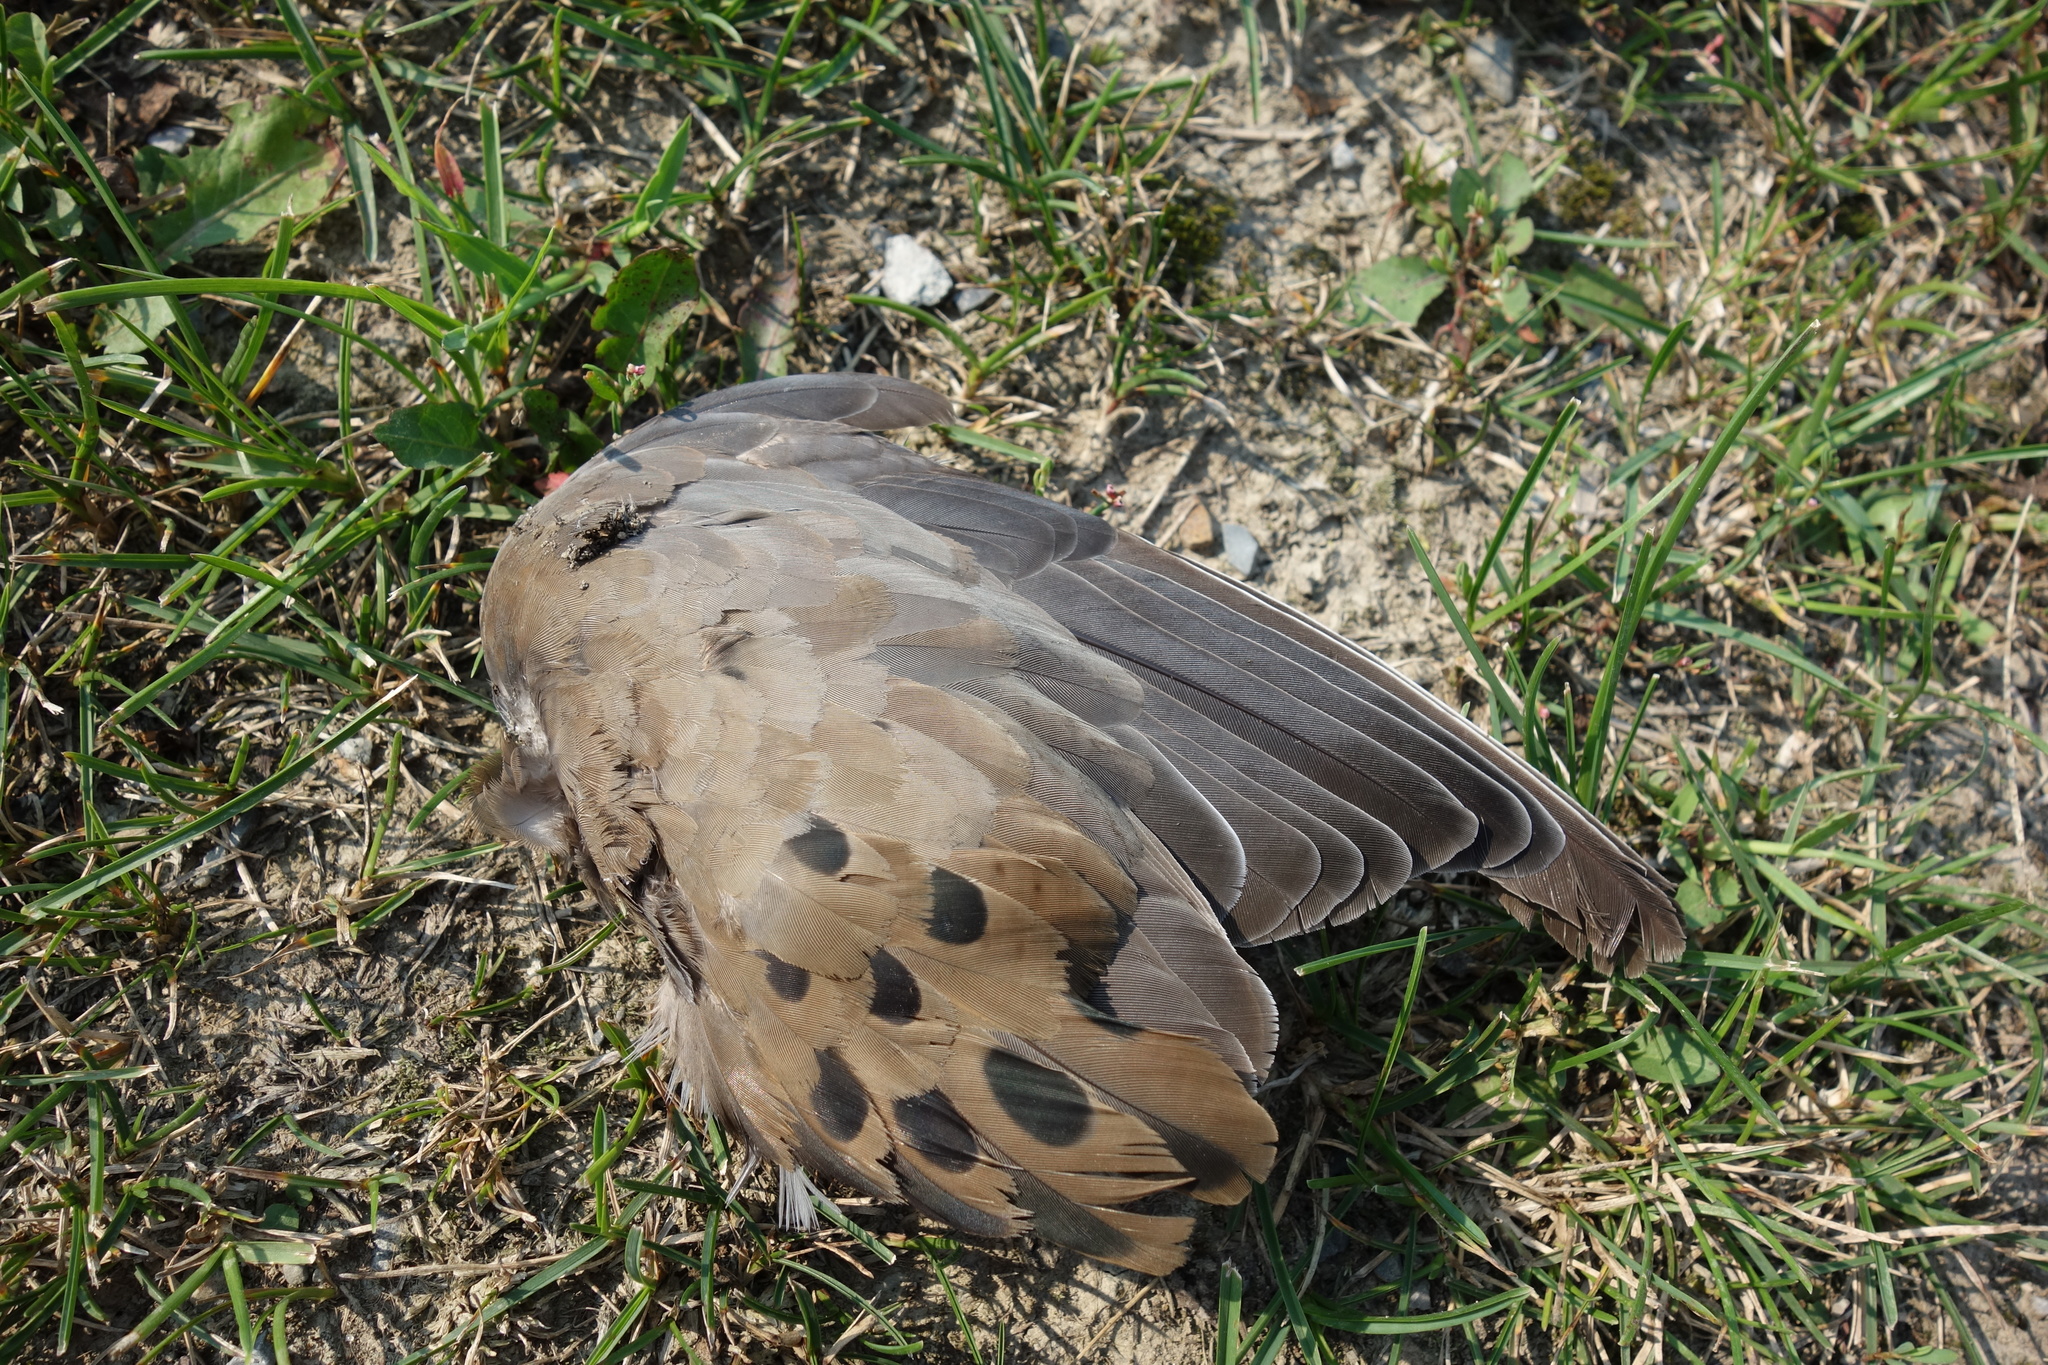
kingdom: Animalia
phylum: Chordata
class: Aves
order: Columbiformes
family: Columbidae
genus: Zenaida
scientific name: Zenaida macroura
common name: Mourning dove
